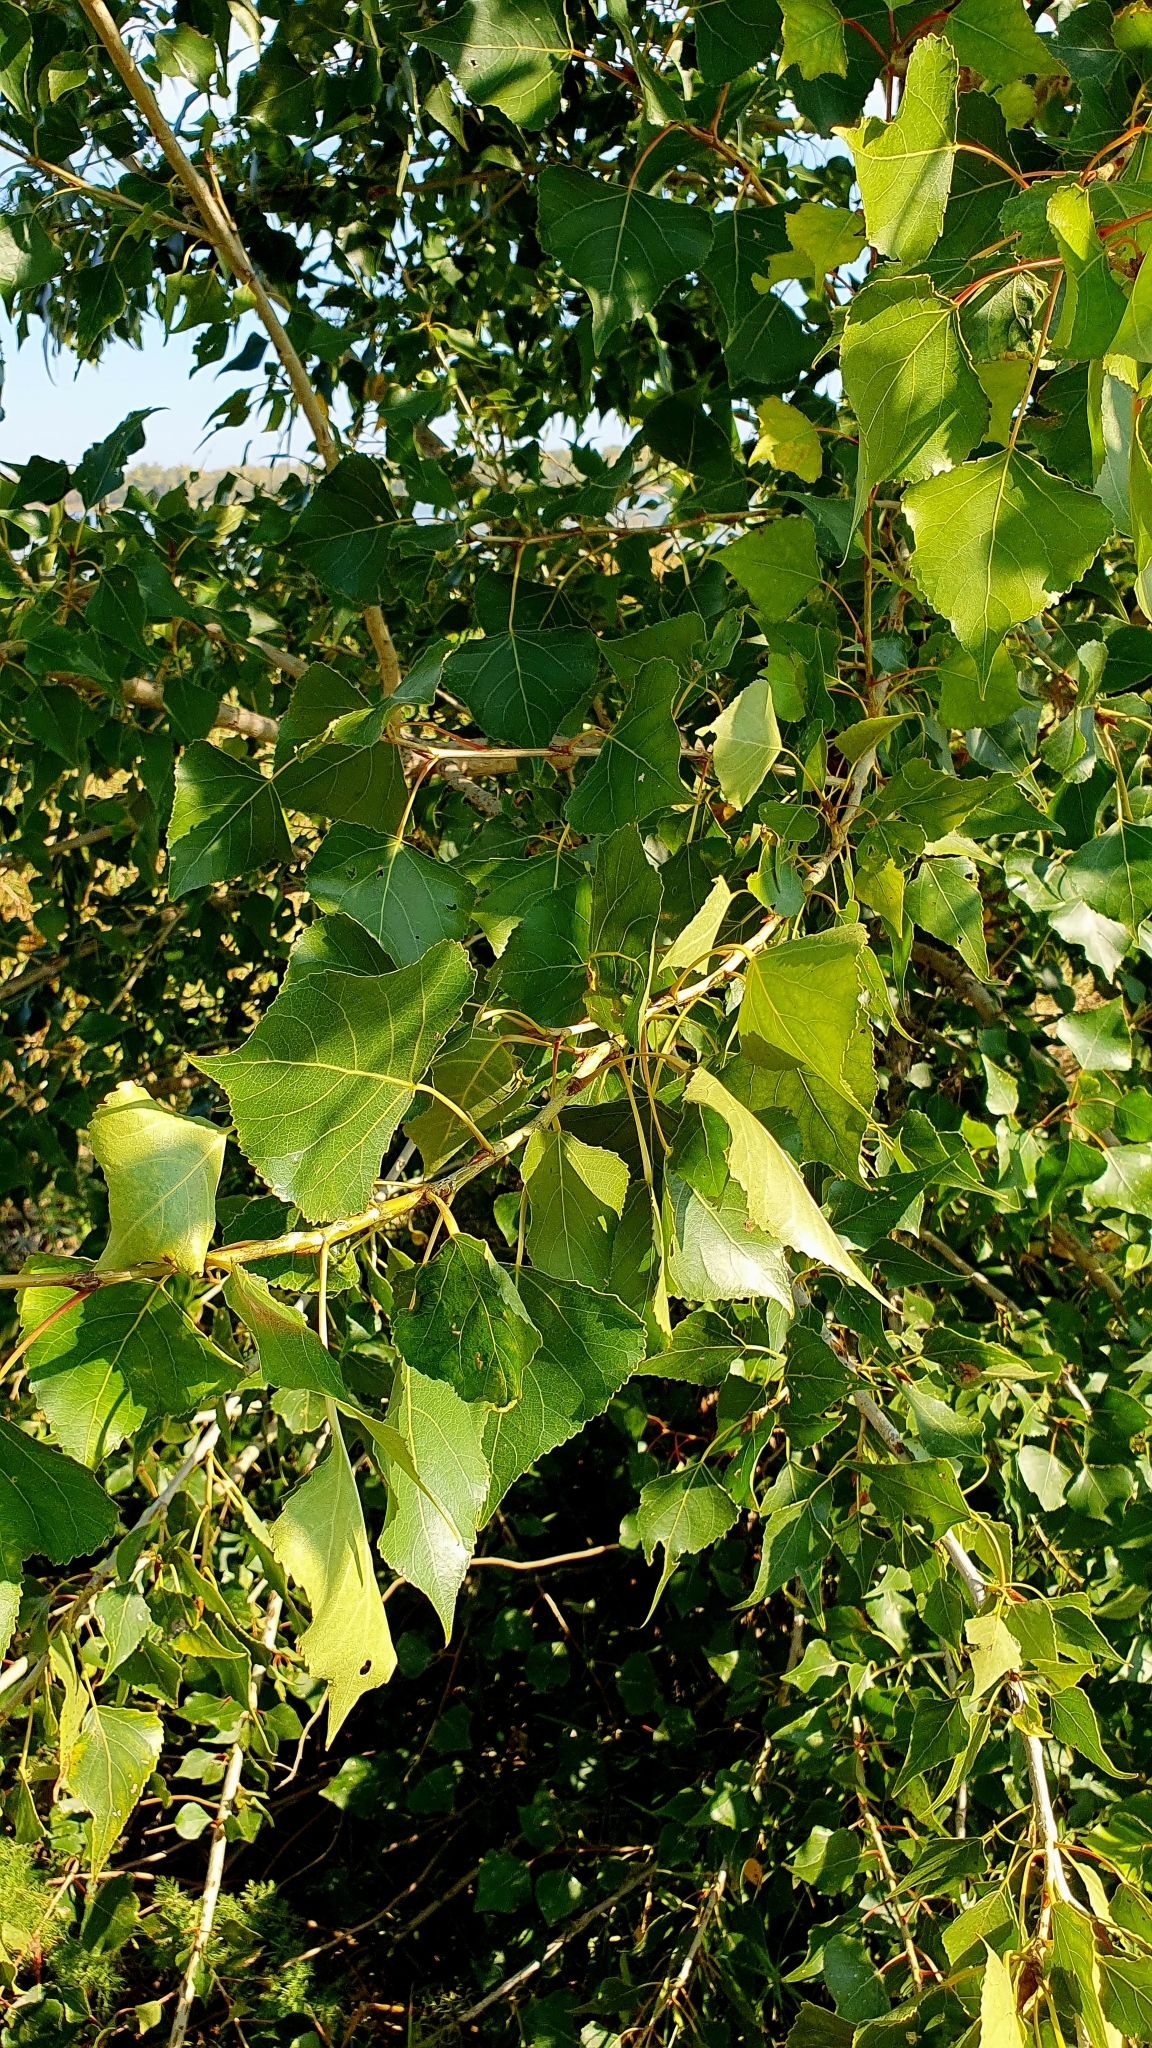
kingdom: Plantae
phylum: Tracheophyta
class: Magnoliopsida
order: Malpighiales
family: Salicaceae
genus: Populus
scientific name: Populus nigra
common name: Black poplar
